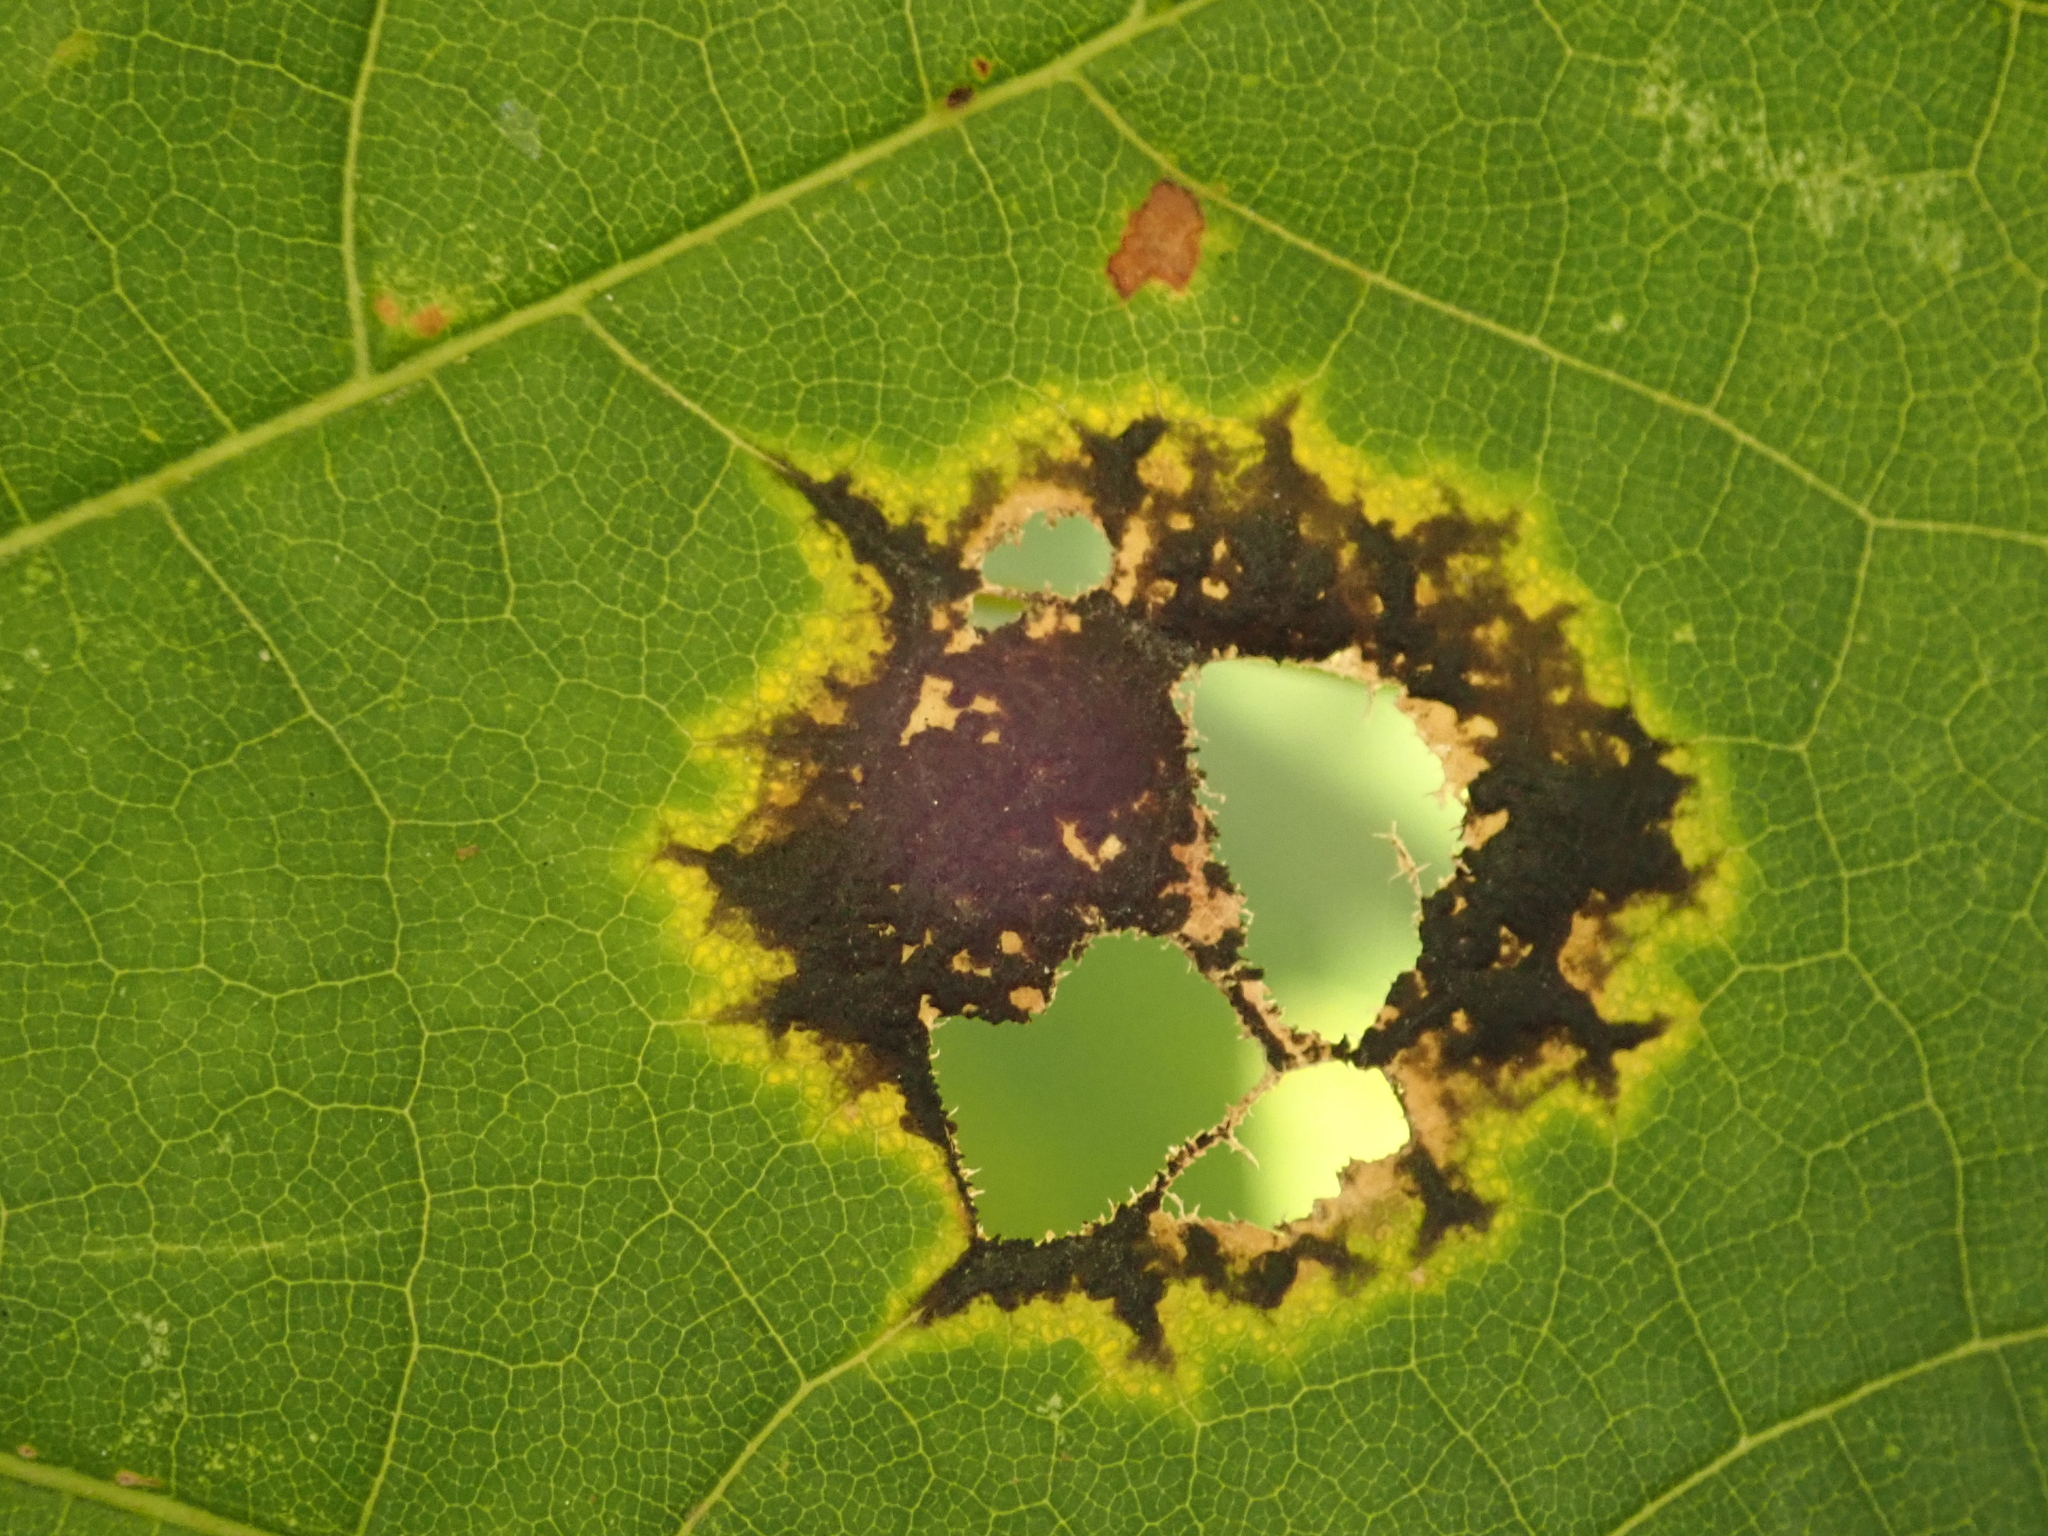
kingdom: Fungi
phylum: Ascomycota
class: Leotiomycetes
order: Rhytismatales
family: Rhytismataceae
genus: Rhytisma
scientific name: Rhytisma acerinum
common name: European tar spot
